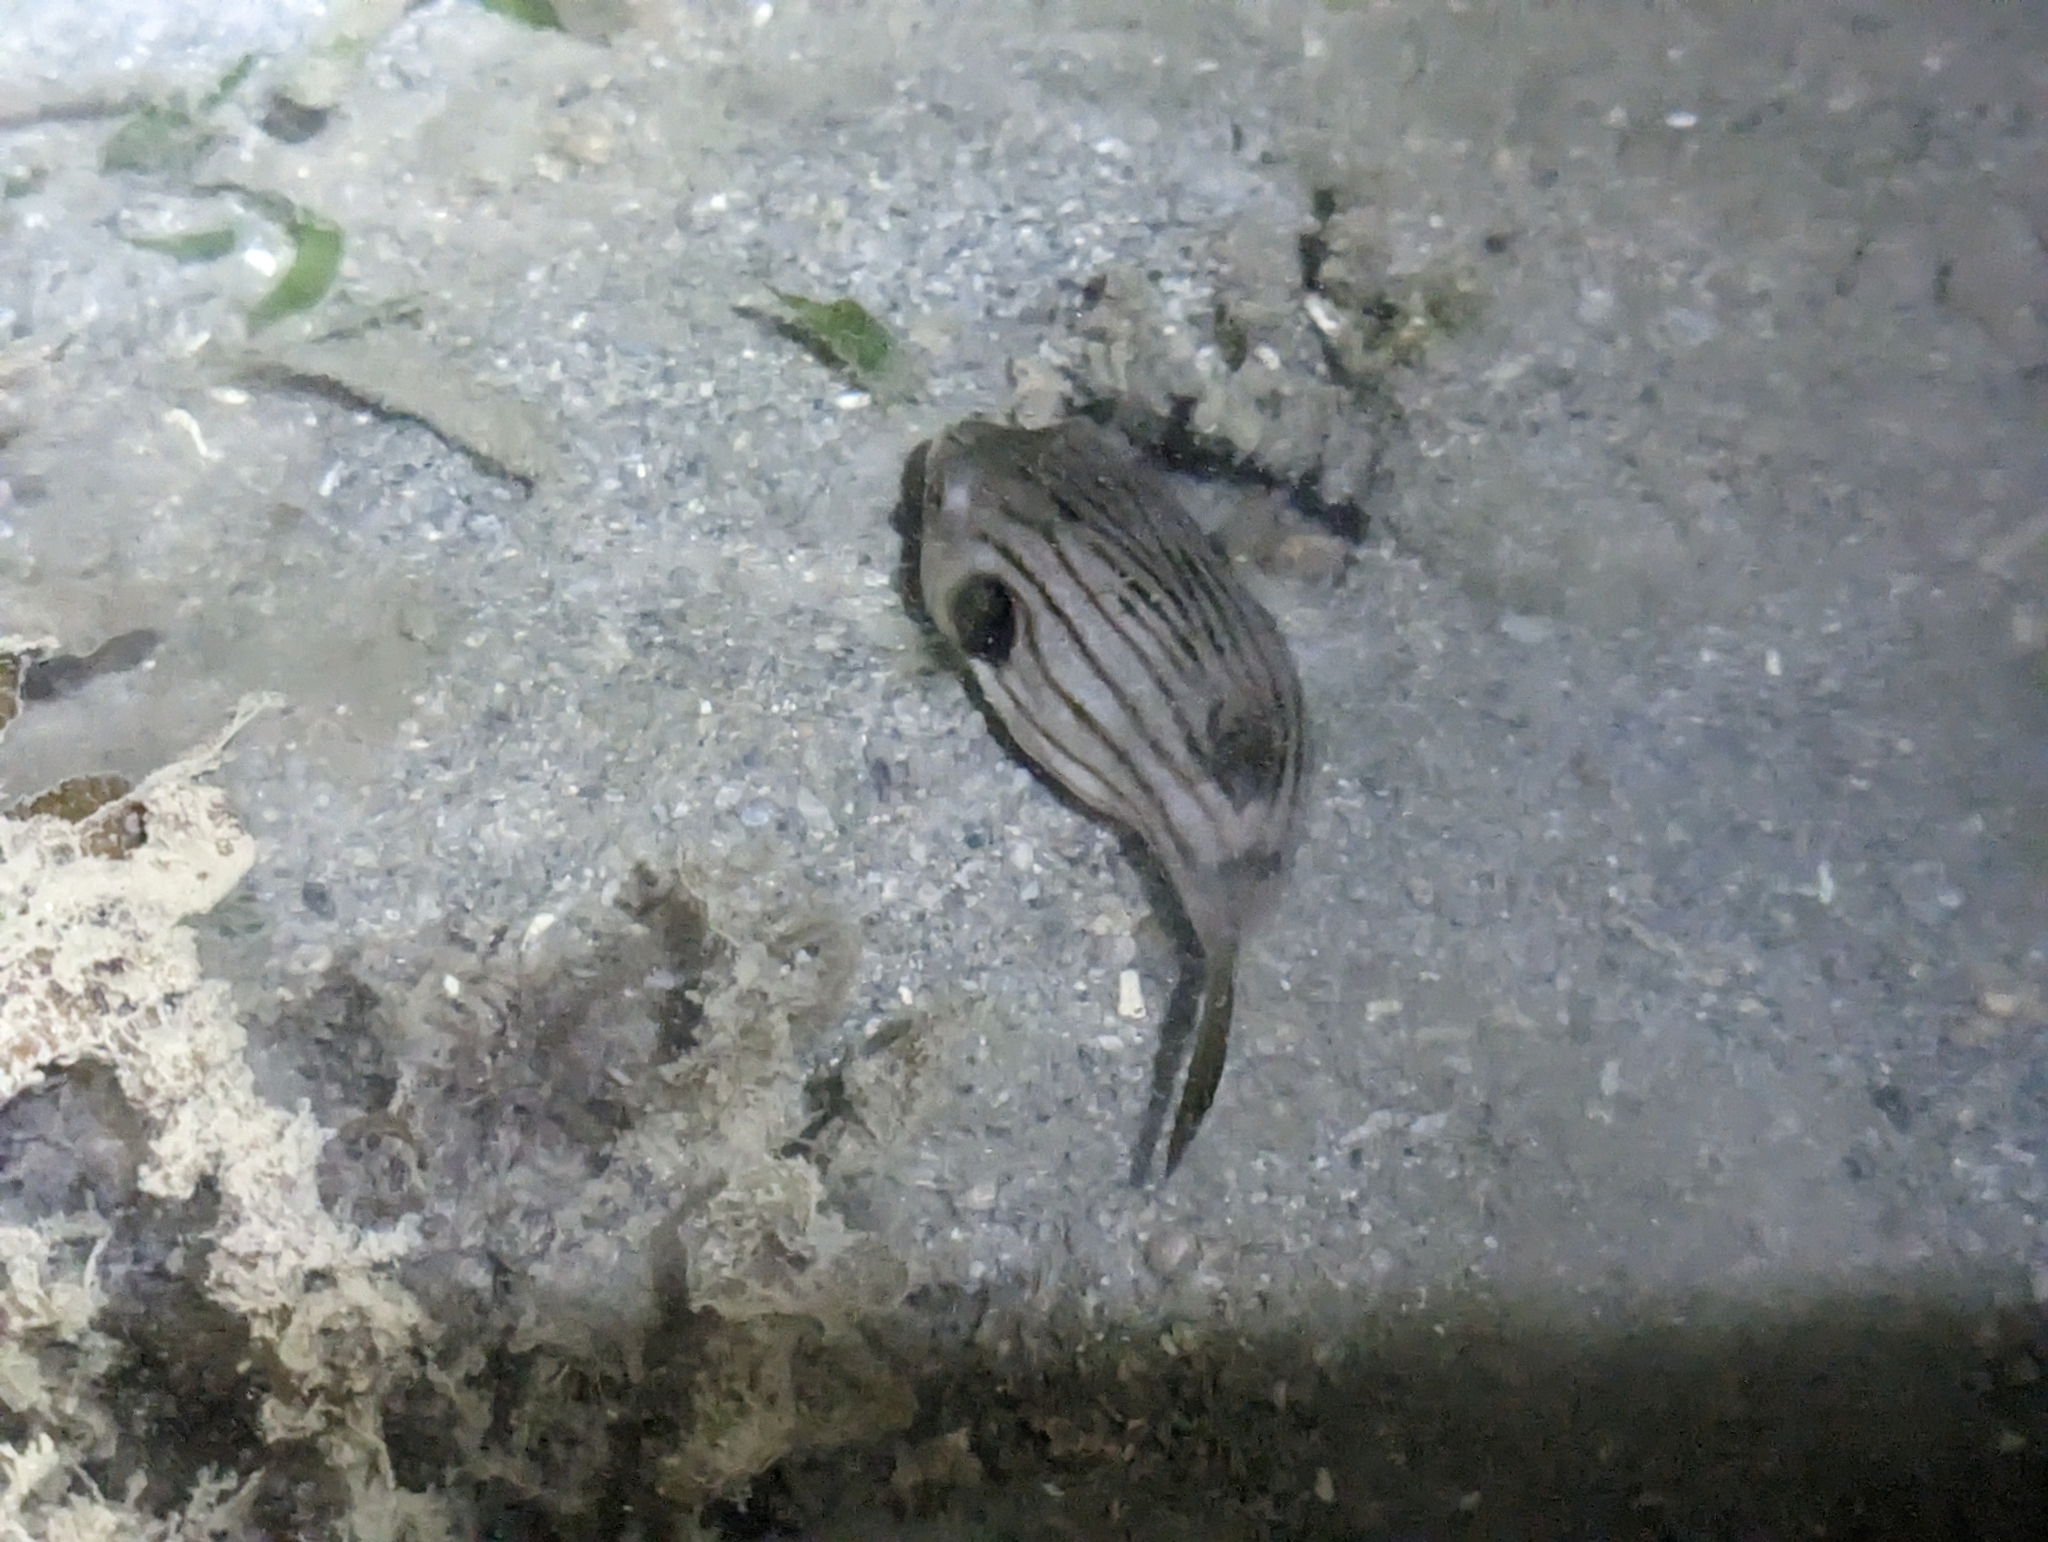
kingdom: Animalia
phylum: Chordata
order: Tetraodontiformes
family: Tetraodontidae
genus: Arothron
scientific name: Arothron manilensis
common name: Narrow-lined puffer
